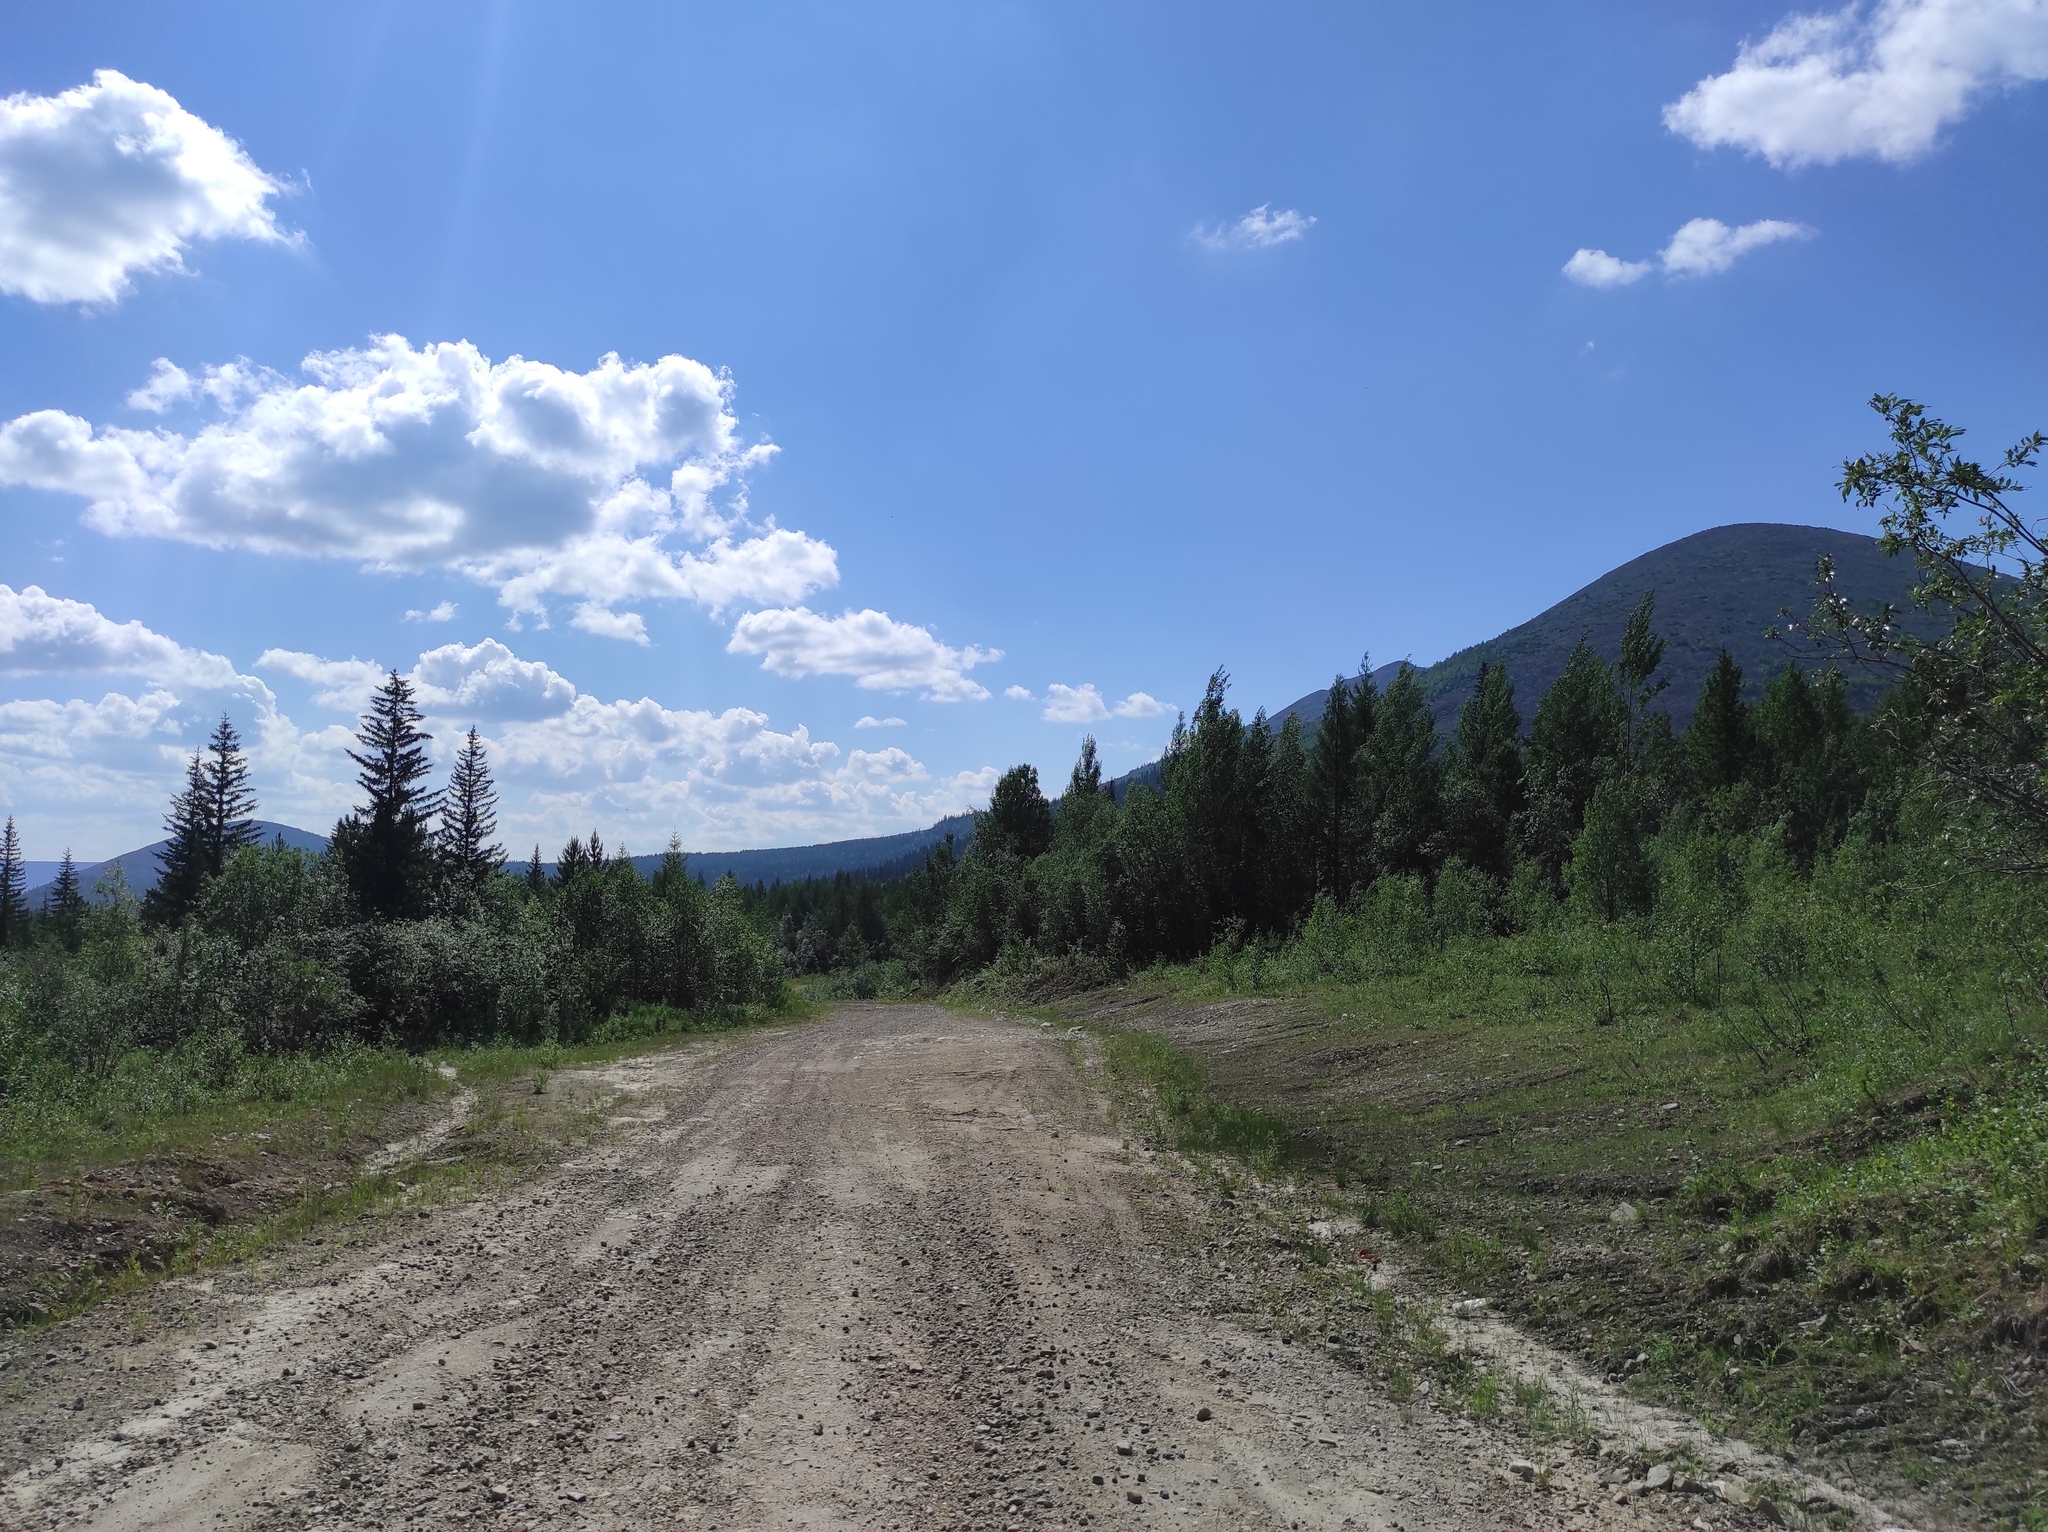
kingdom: Plantae
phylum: Tracheophyta
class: Pinopsida
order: Pinales
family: Pinaceae
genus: Picea
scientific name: Picea obovata
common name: Siberian spruce
